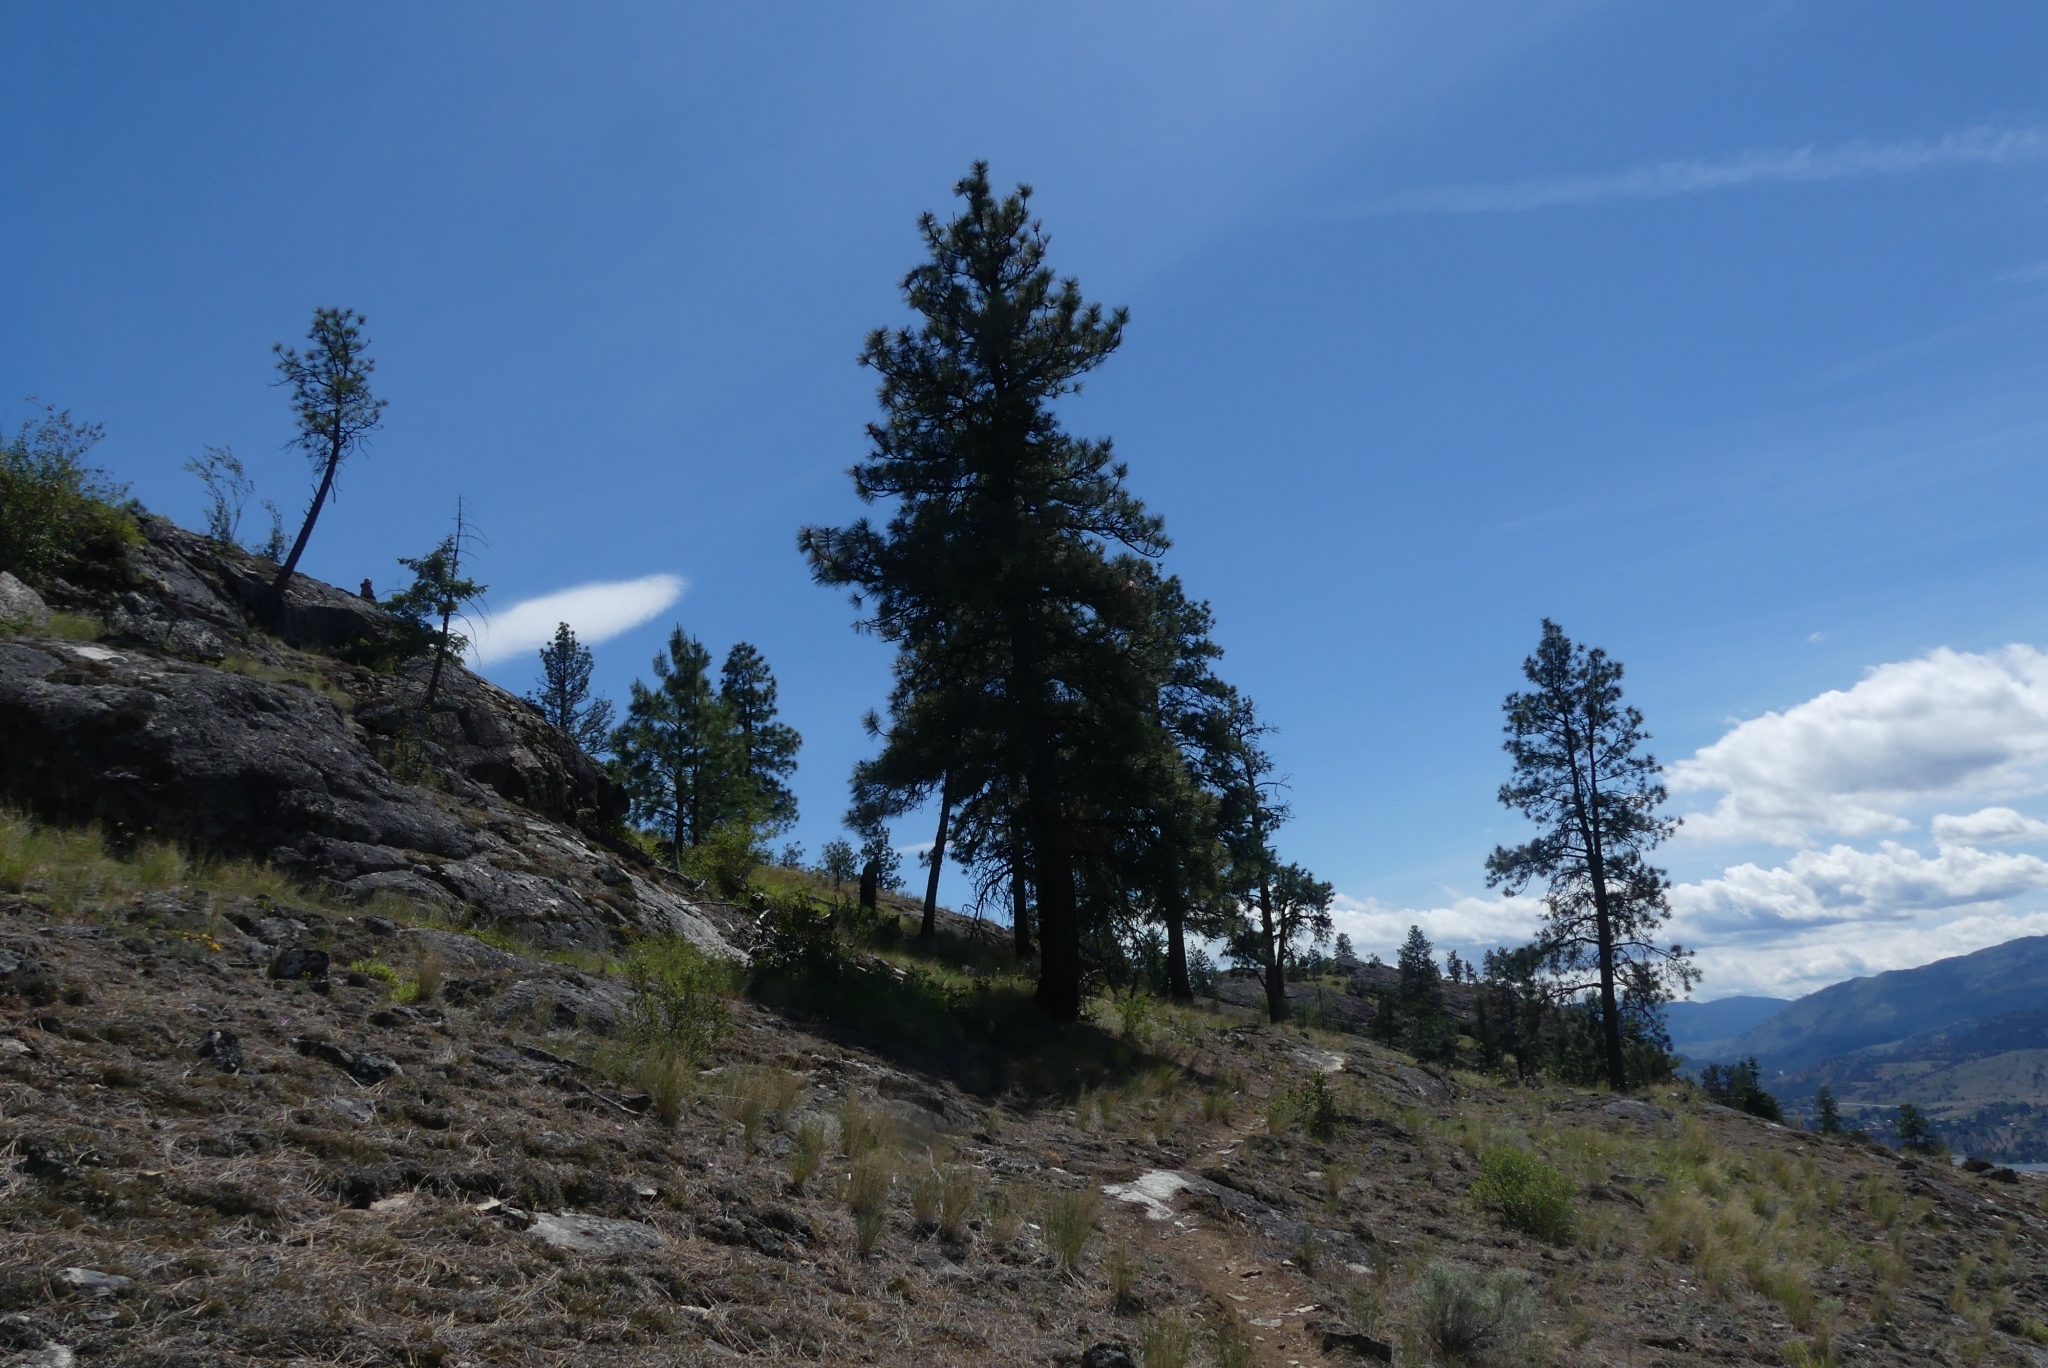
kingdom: Plantae
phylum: Tracheophyta
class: Pinopsida
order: Pinales
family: Pinaceae
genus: Pinus
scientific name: Pinus ponderosa
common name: Western yellow-pine
